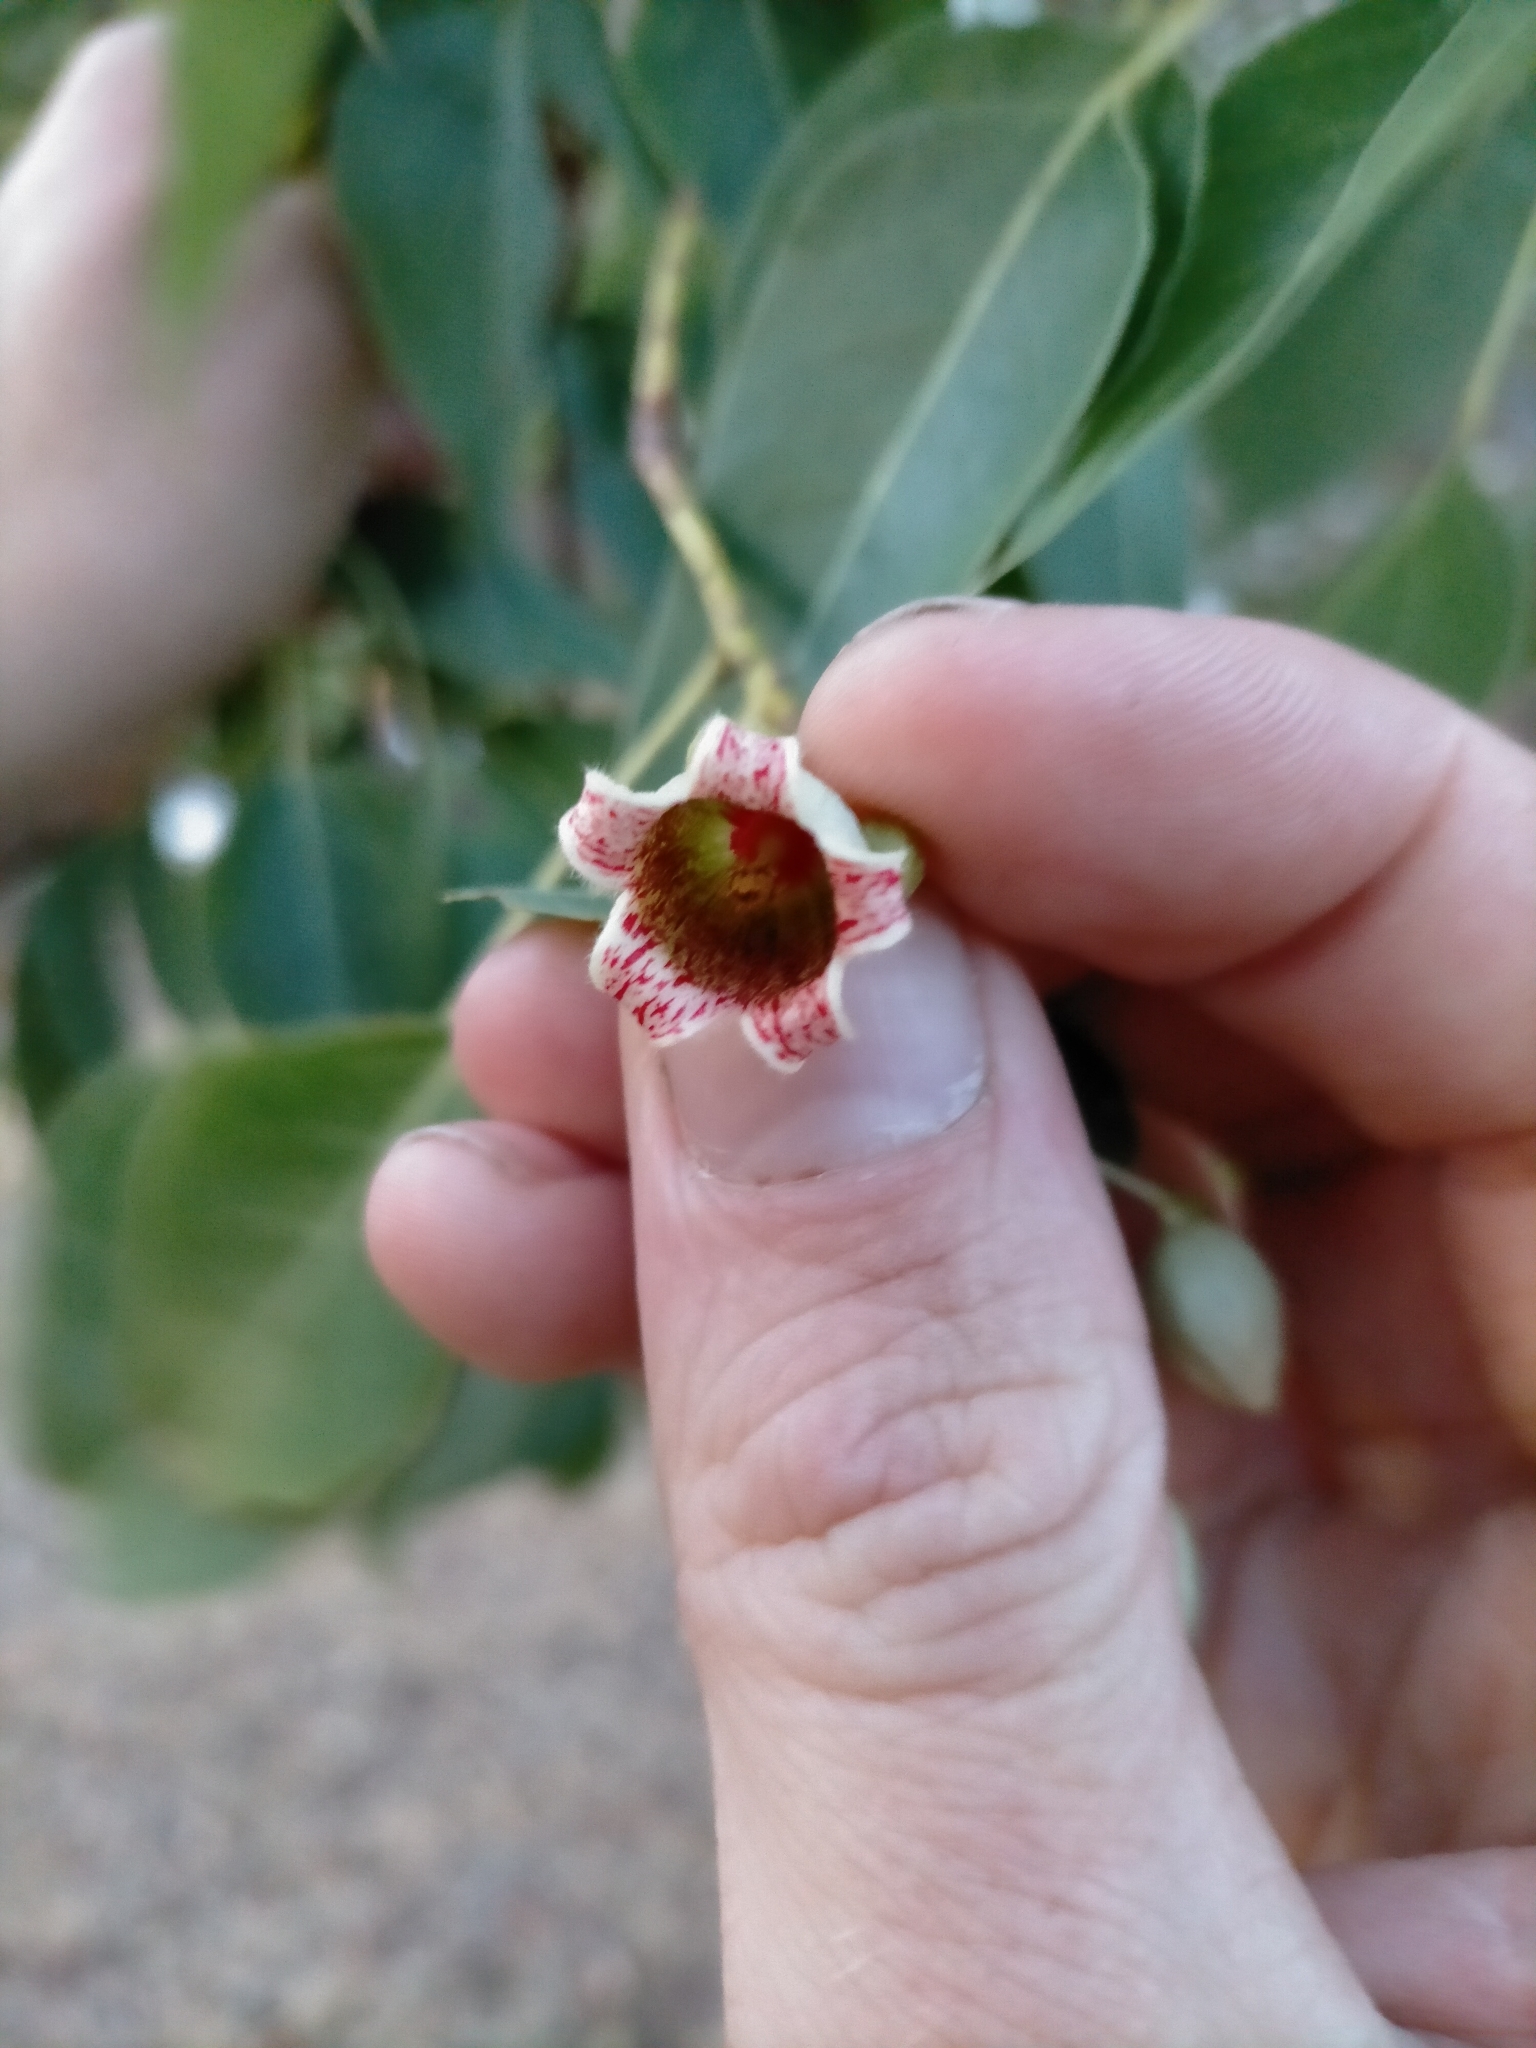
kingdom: Plantae
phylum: Tracheophyta
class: Magnoliopsida
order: Malvales
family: Malvaceae
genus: Brachychiton
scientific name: Brachychiton populneus
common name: Kurrajong
